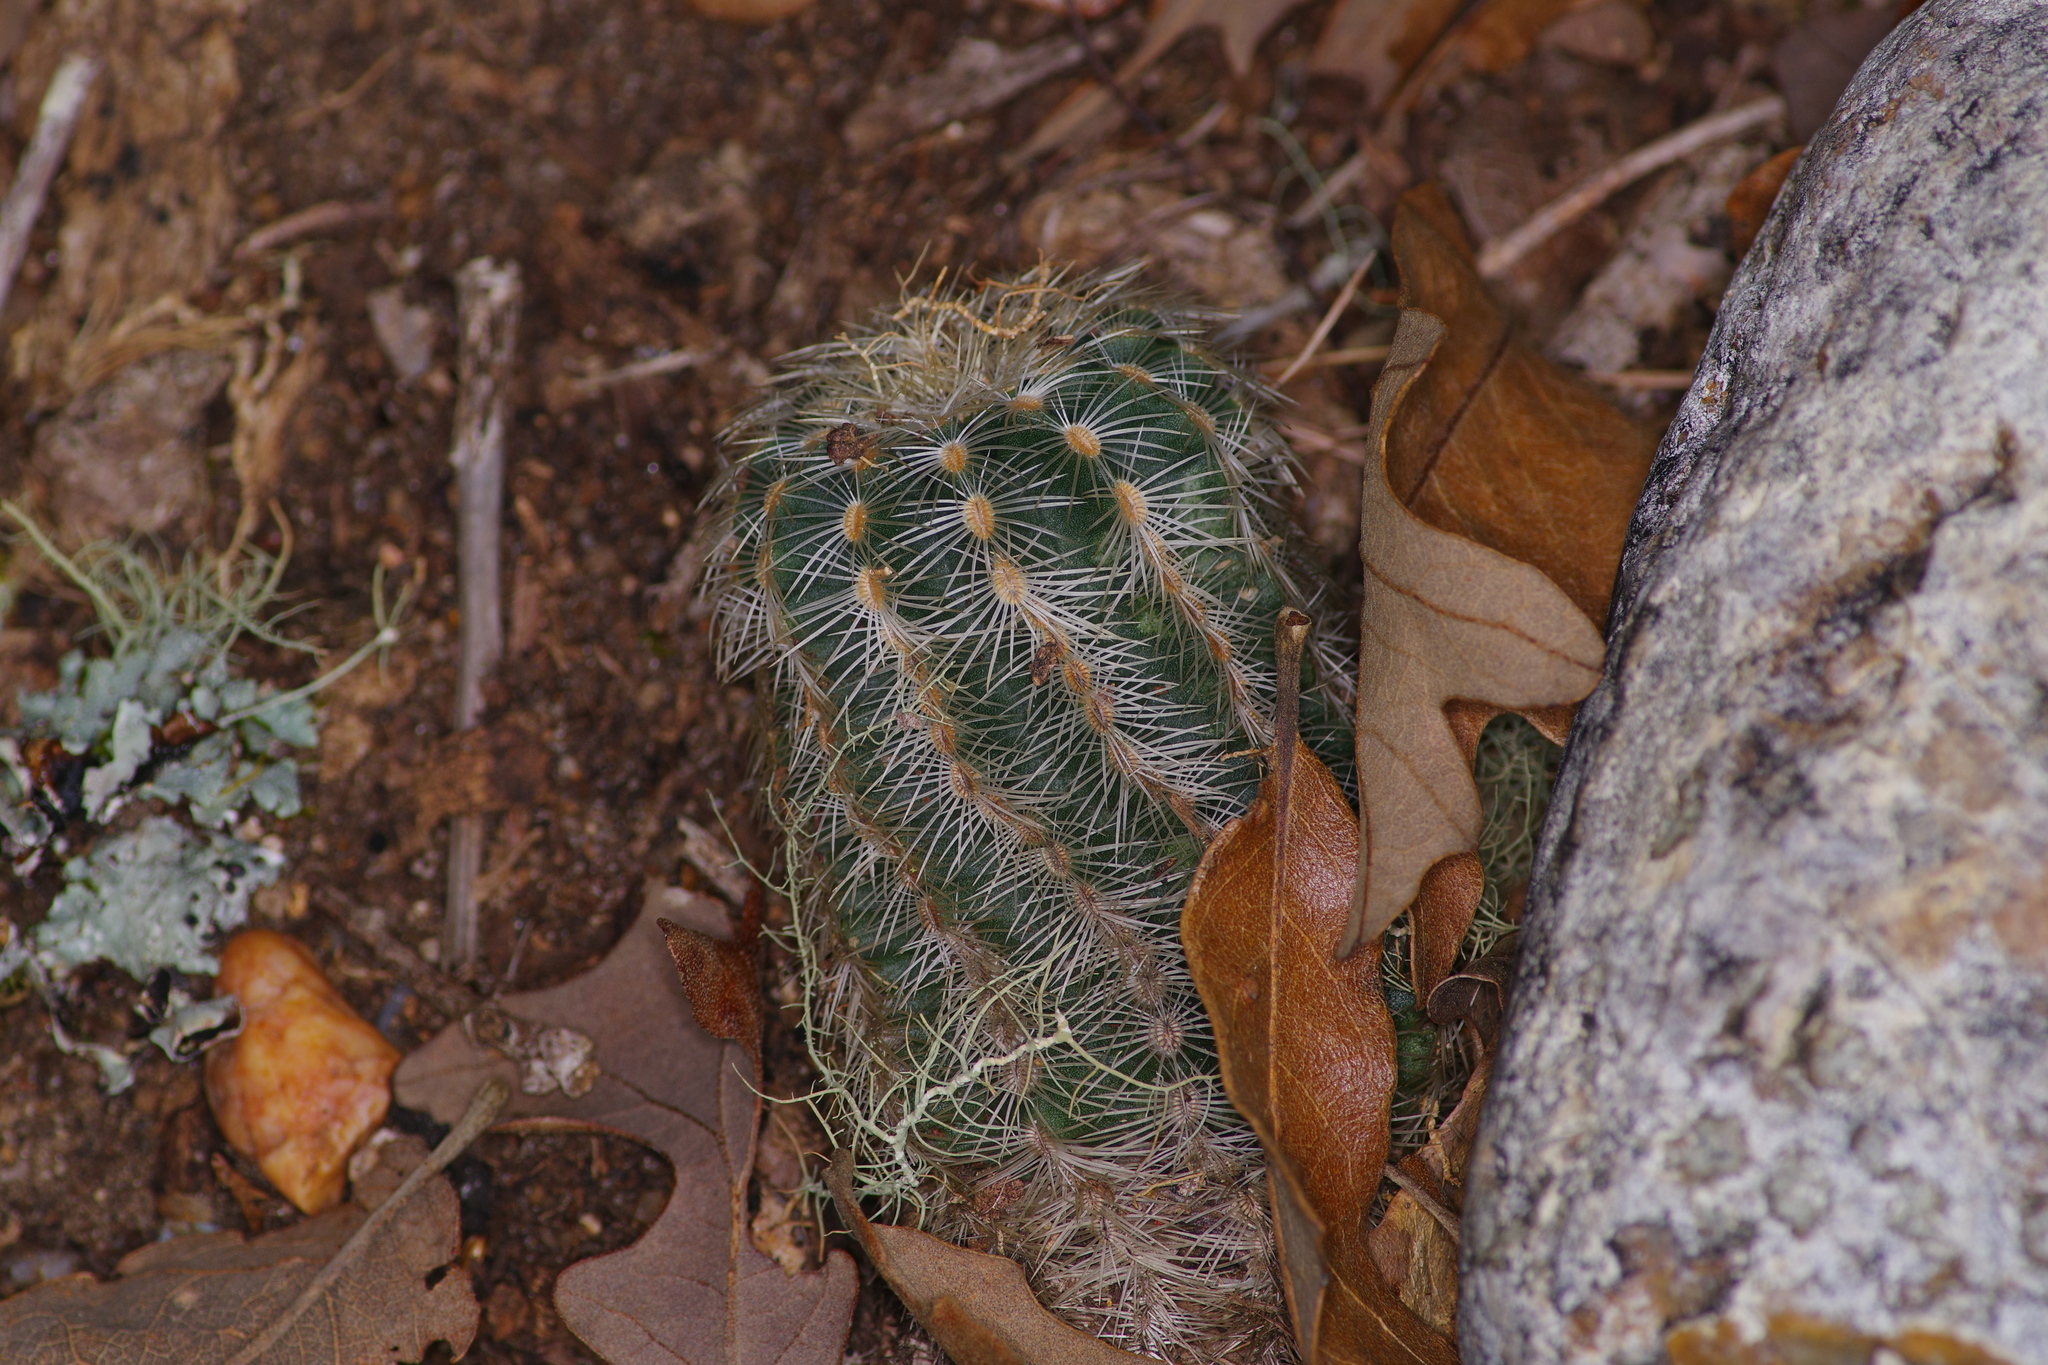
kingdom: Plantae
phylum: Tracheophyta
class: Magnoliopsida
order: Caryophyllales
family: Cactaceae
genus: Echinocereus
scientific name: Echinocereus reichenbachii
